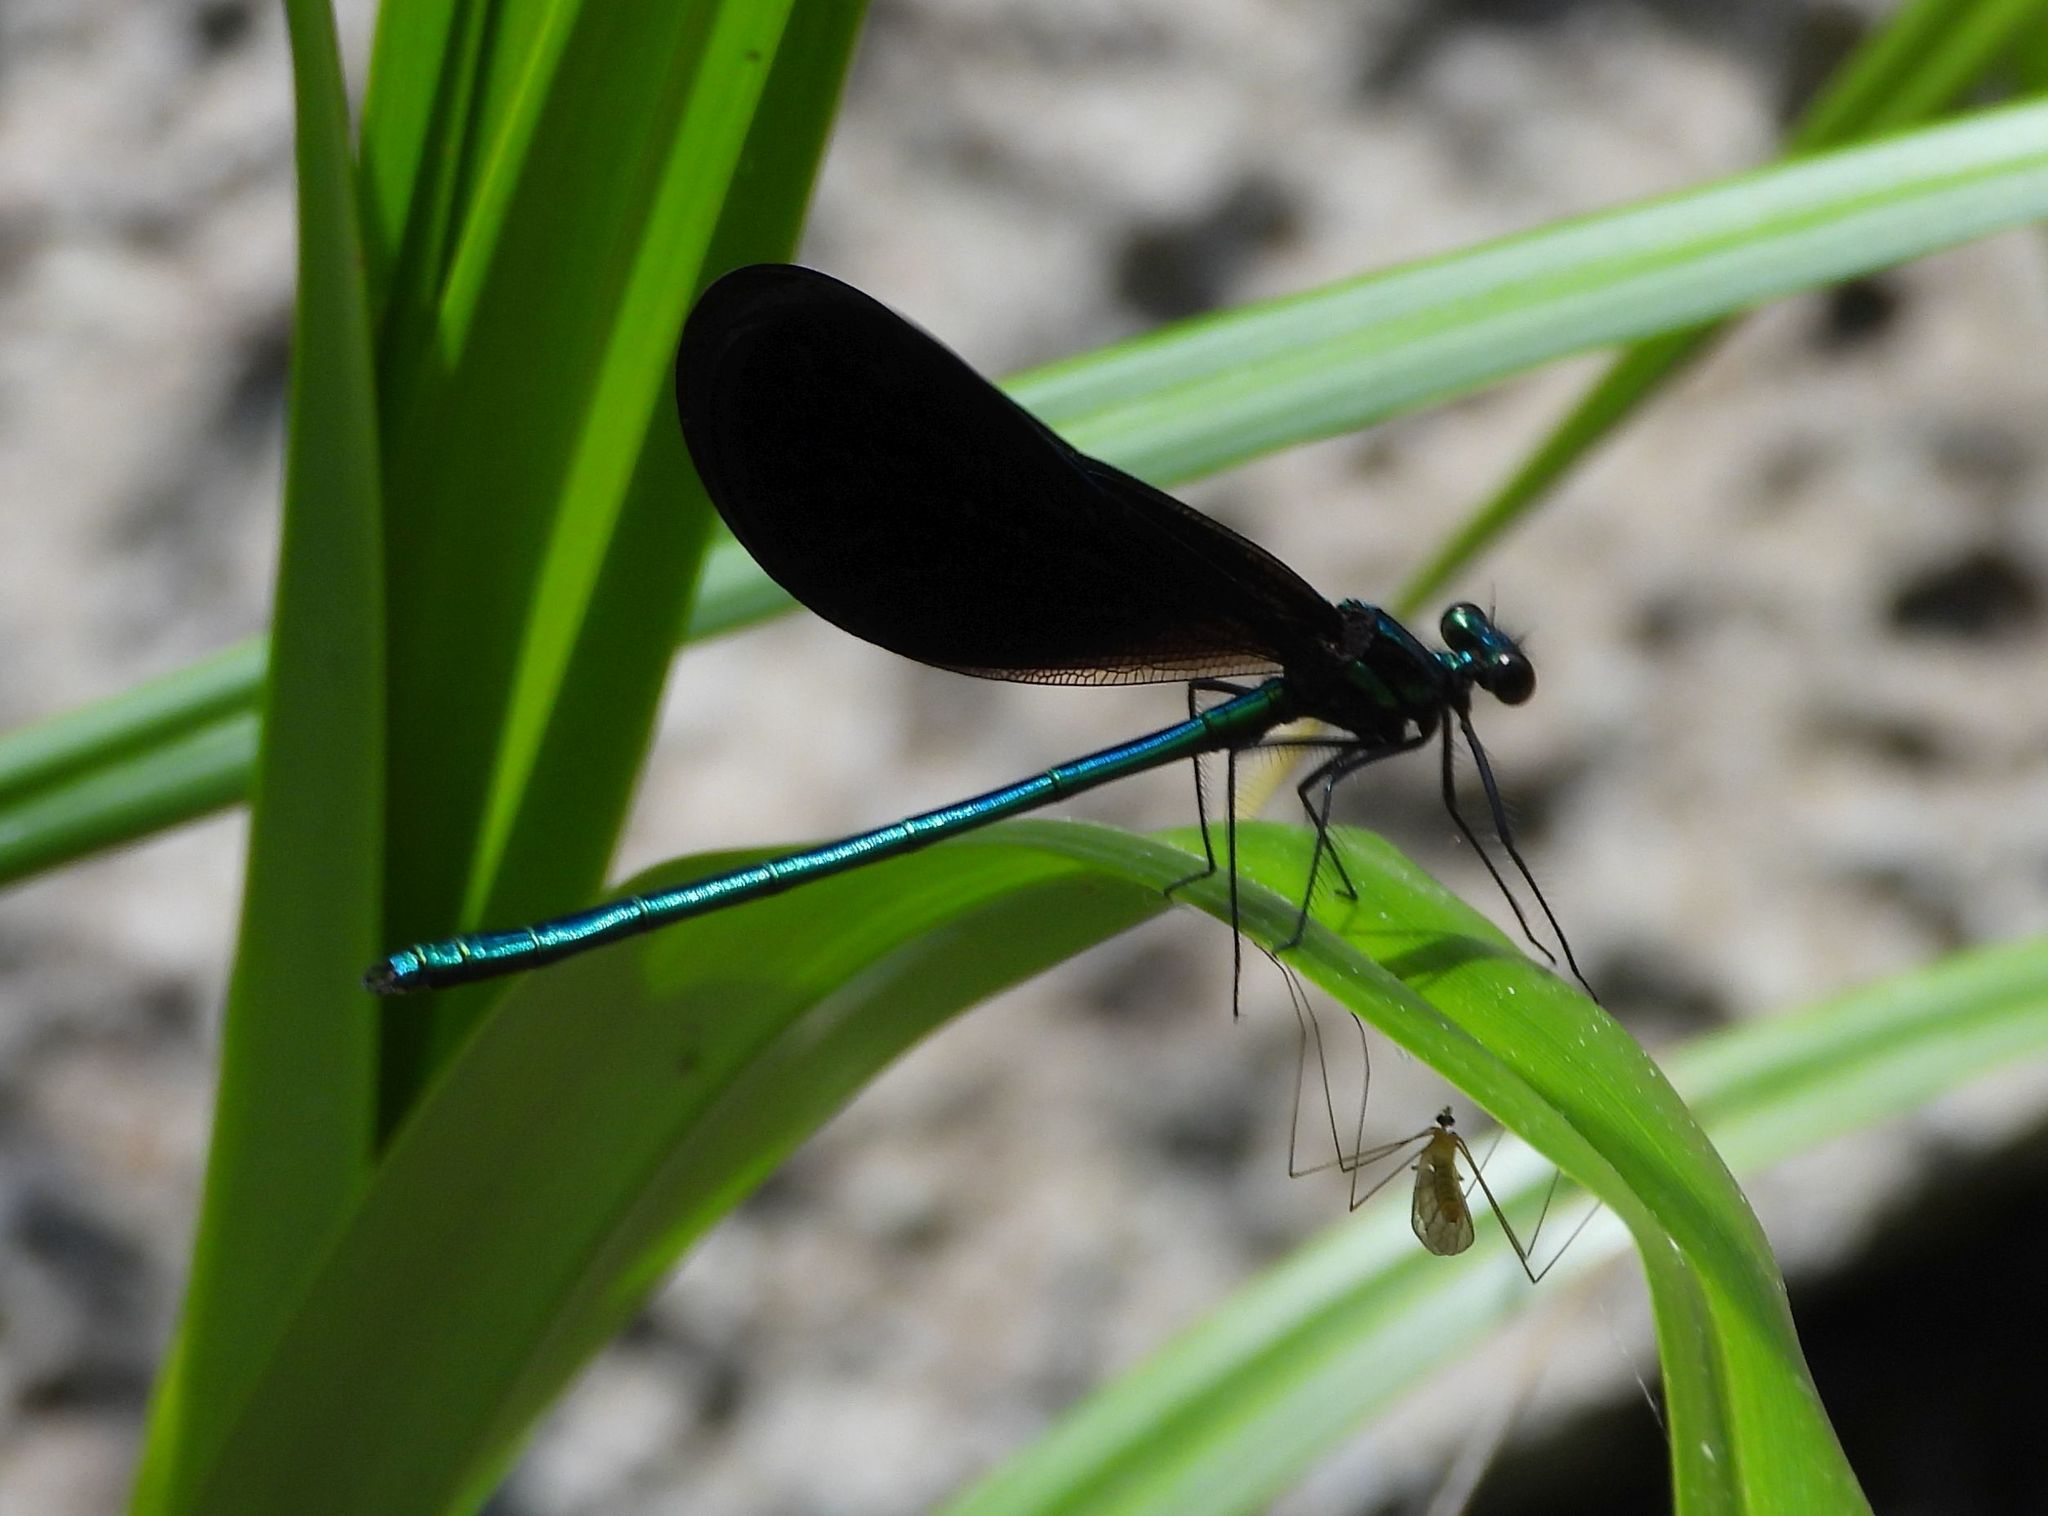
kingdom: Animalia
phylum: Arthropoda
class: Insecta
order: Odonata
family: Calopterygidae
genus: Calopteryx
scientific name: Calopteryx maculata
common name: Ebony jewelwing
